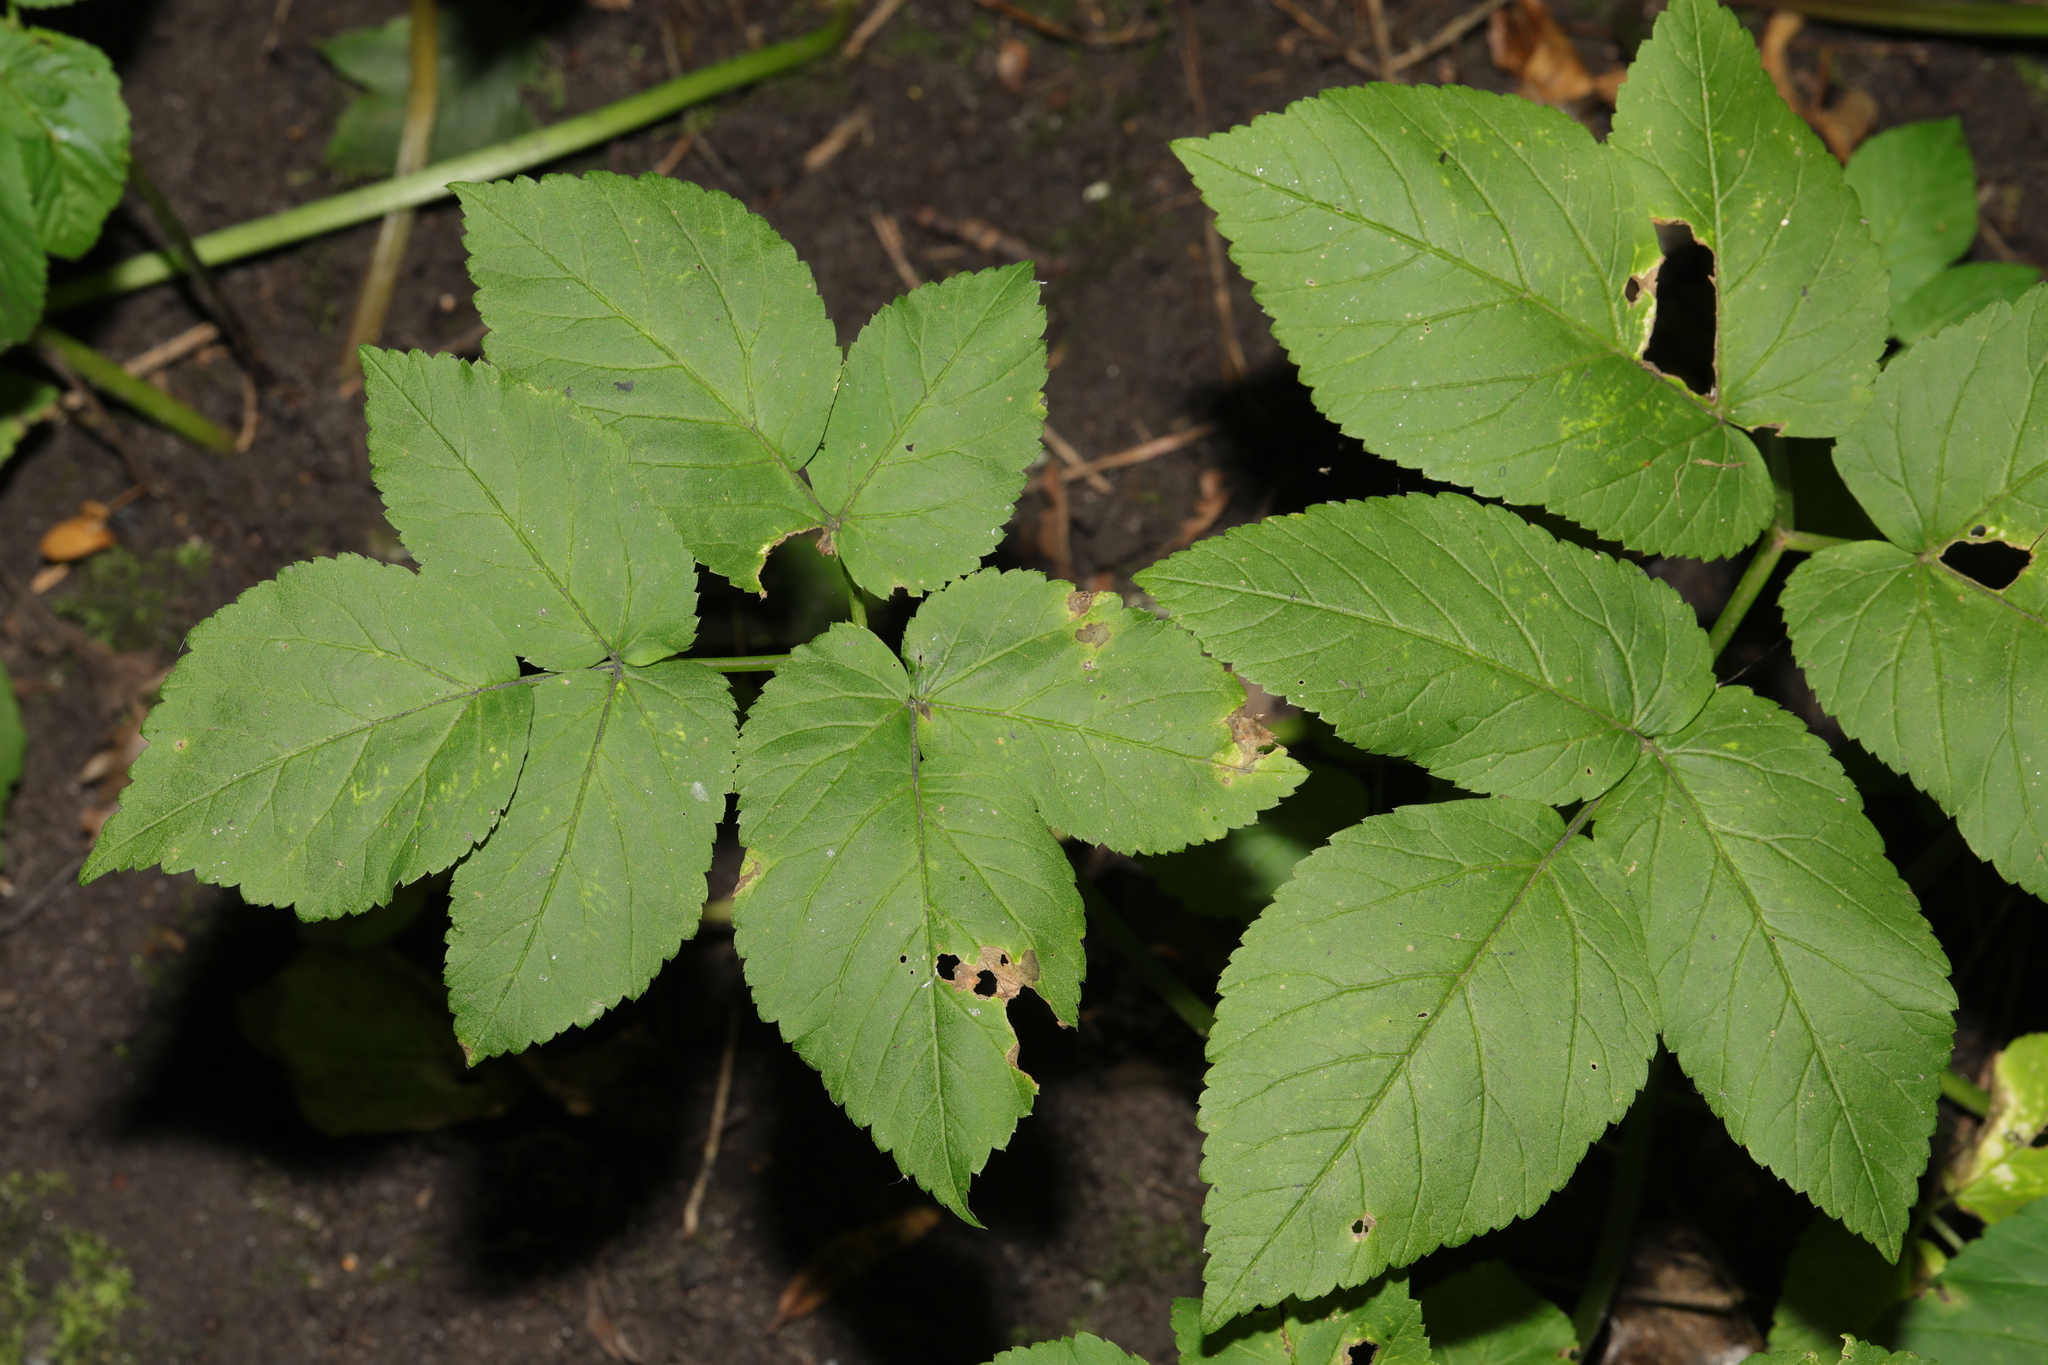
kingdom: Plantae
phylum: Tracheophyta
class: Magnoliopsida
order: Apiales
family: Apiaceae
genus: Aegopodium
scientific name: Aegopodium podagraria
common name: Ground-elder
